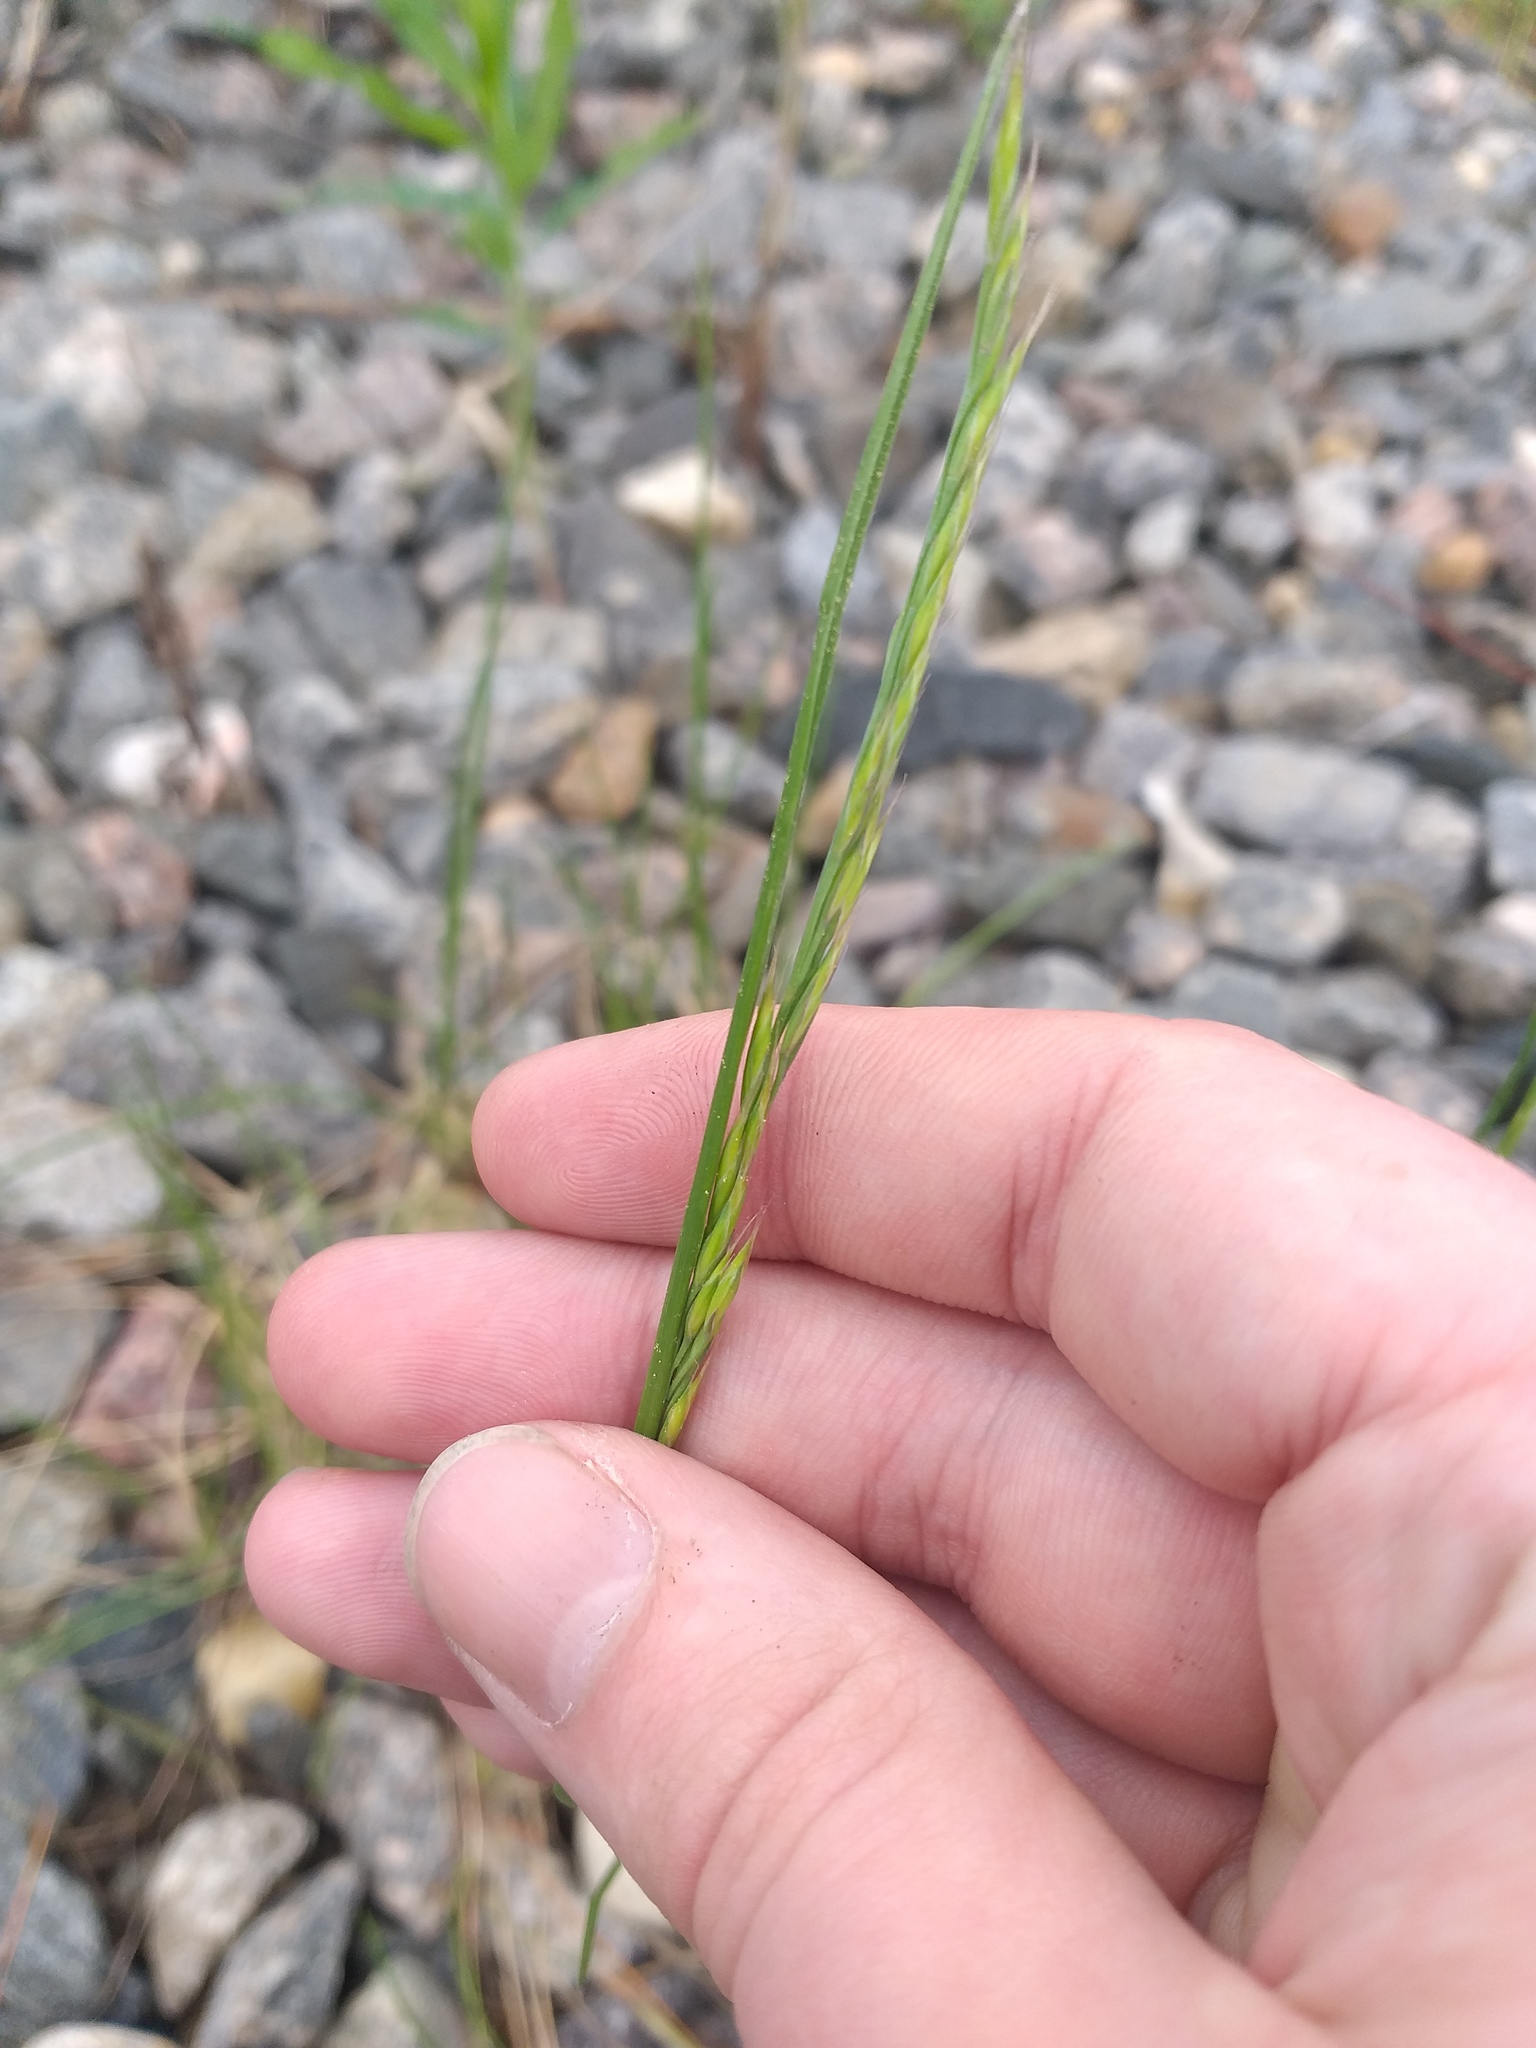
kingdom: Plantae
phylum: Tracheophyta
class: Liliopsida
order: Poales
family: Poaceae
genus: Festuca
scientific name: Festuca rubra
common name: Red fescue
